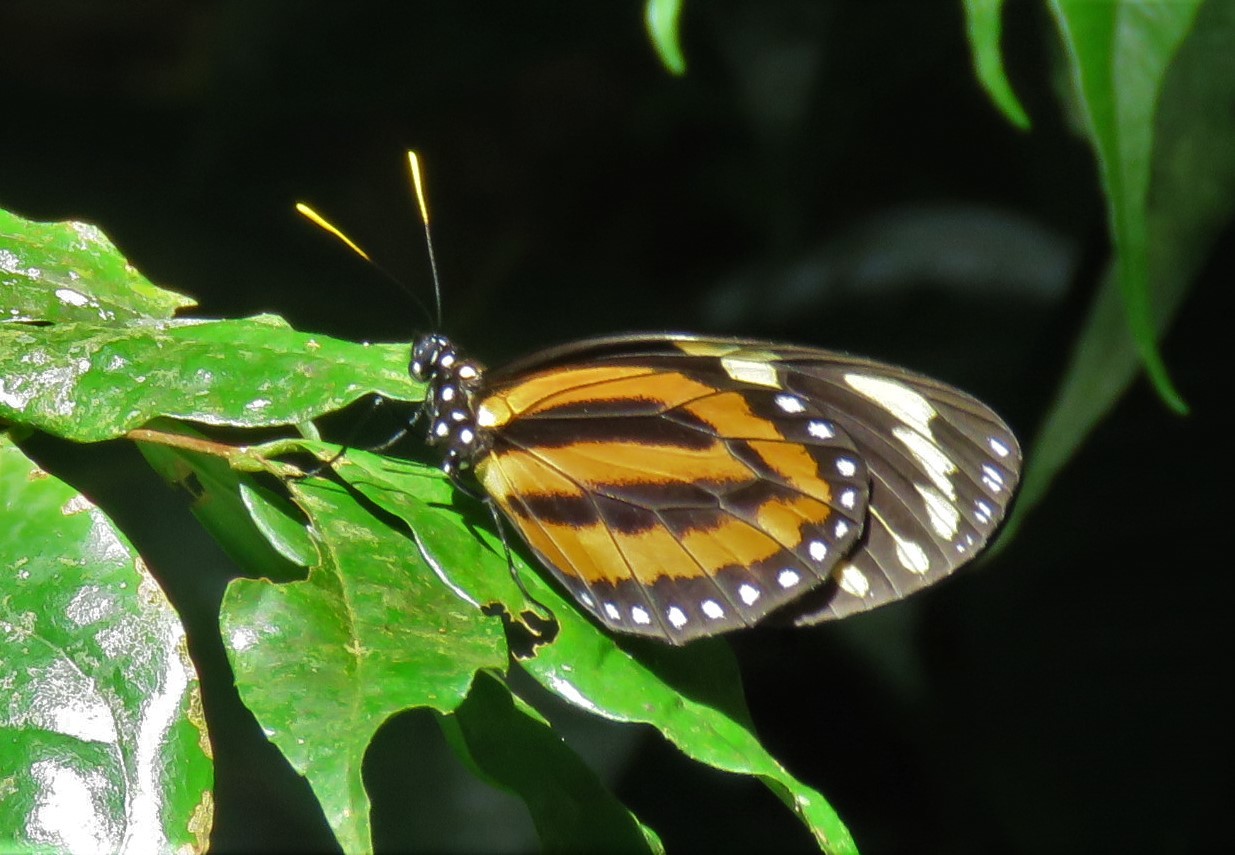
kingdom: Animalia
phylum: Arthropoda
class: Insecta
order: Lepidoptera
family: Nymphalidae
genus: Lycorea
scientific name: Lycorea cleobaea
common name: Tiger mimic-queen
